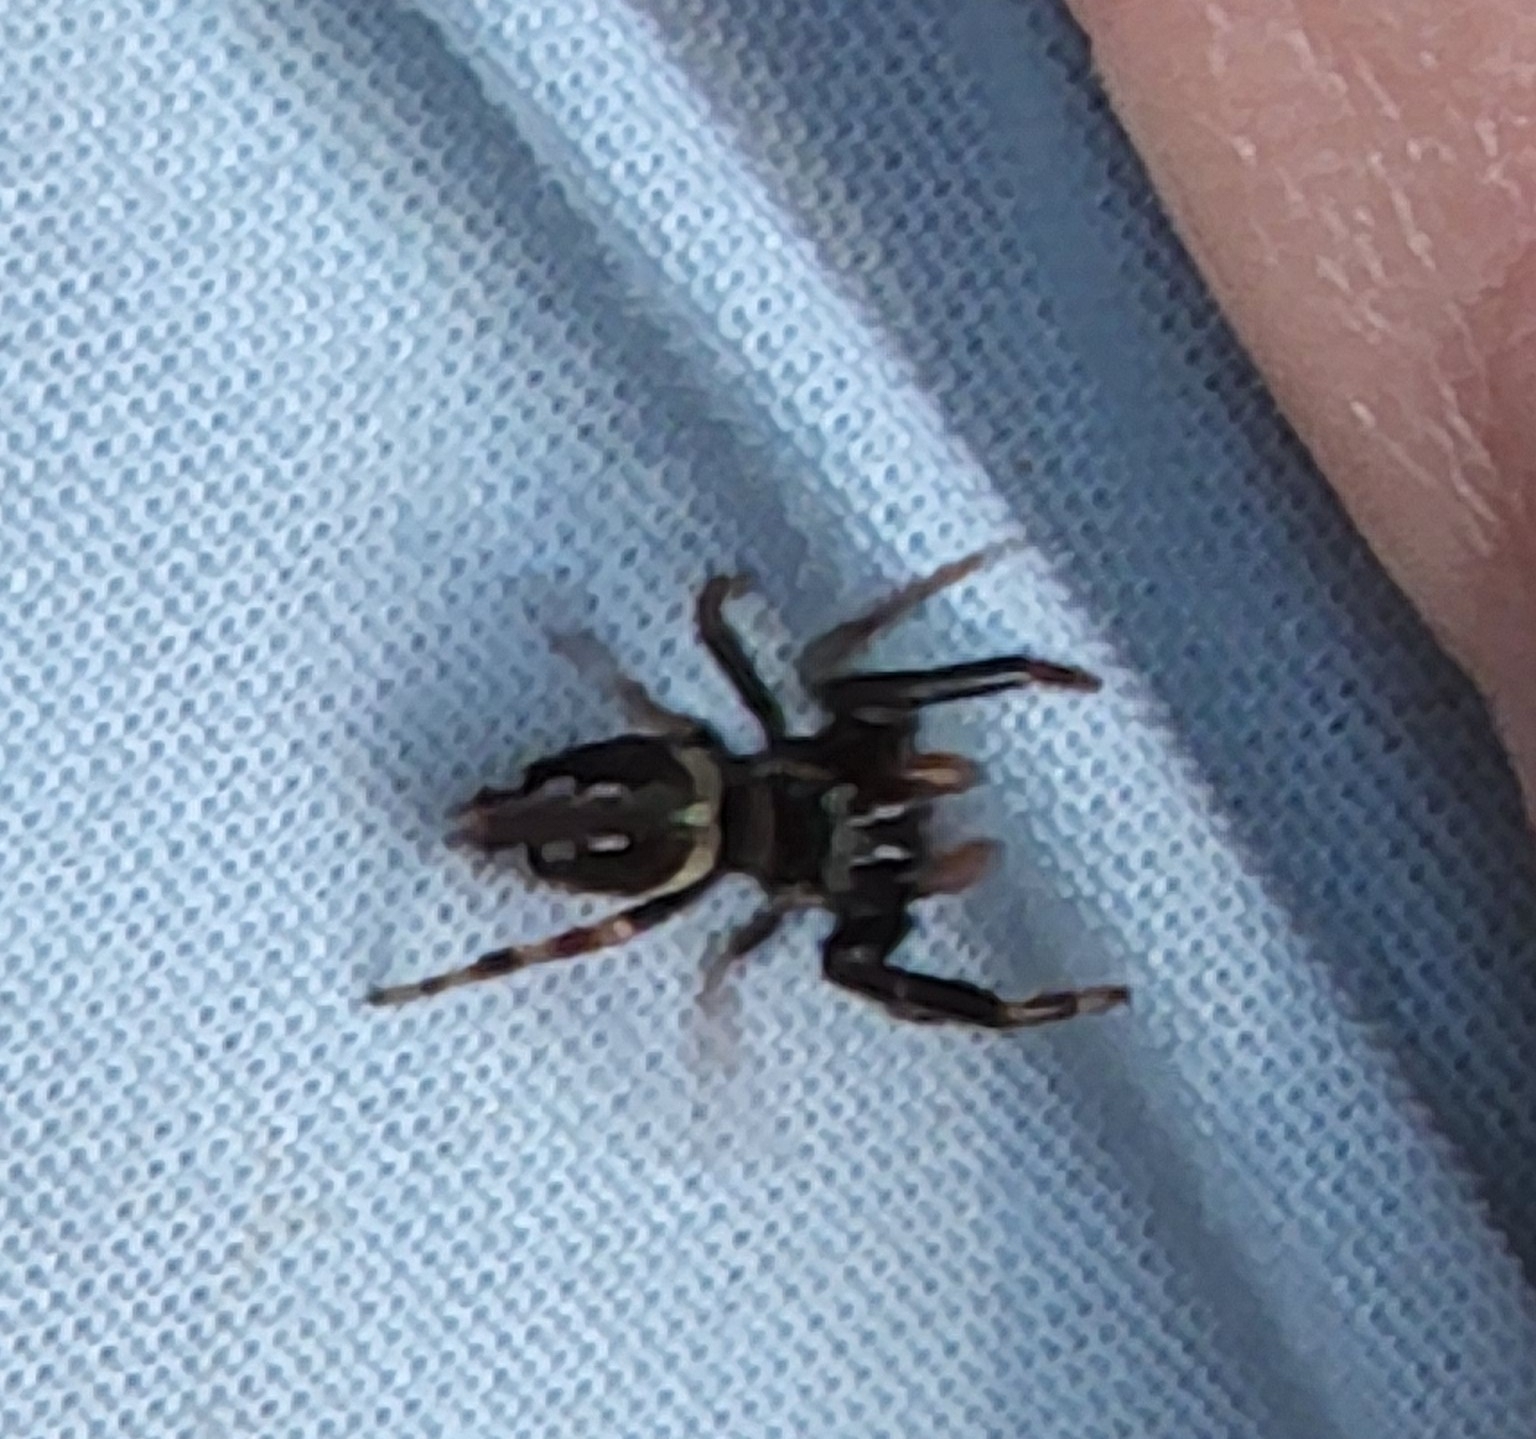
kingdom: Animalia
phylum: Arthropoda
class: Arachnida
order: Araneae
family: Salticidae
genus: Paraphidippus
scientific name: Paraphidippus aurantius
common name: Jumping spiders
